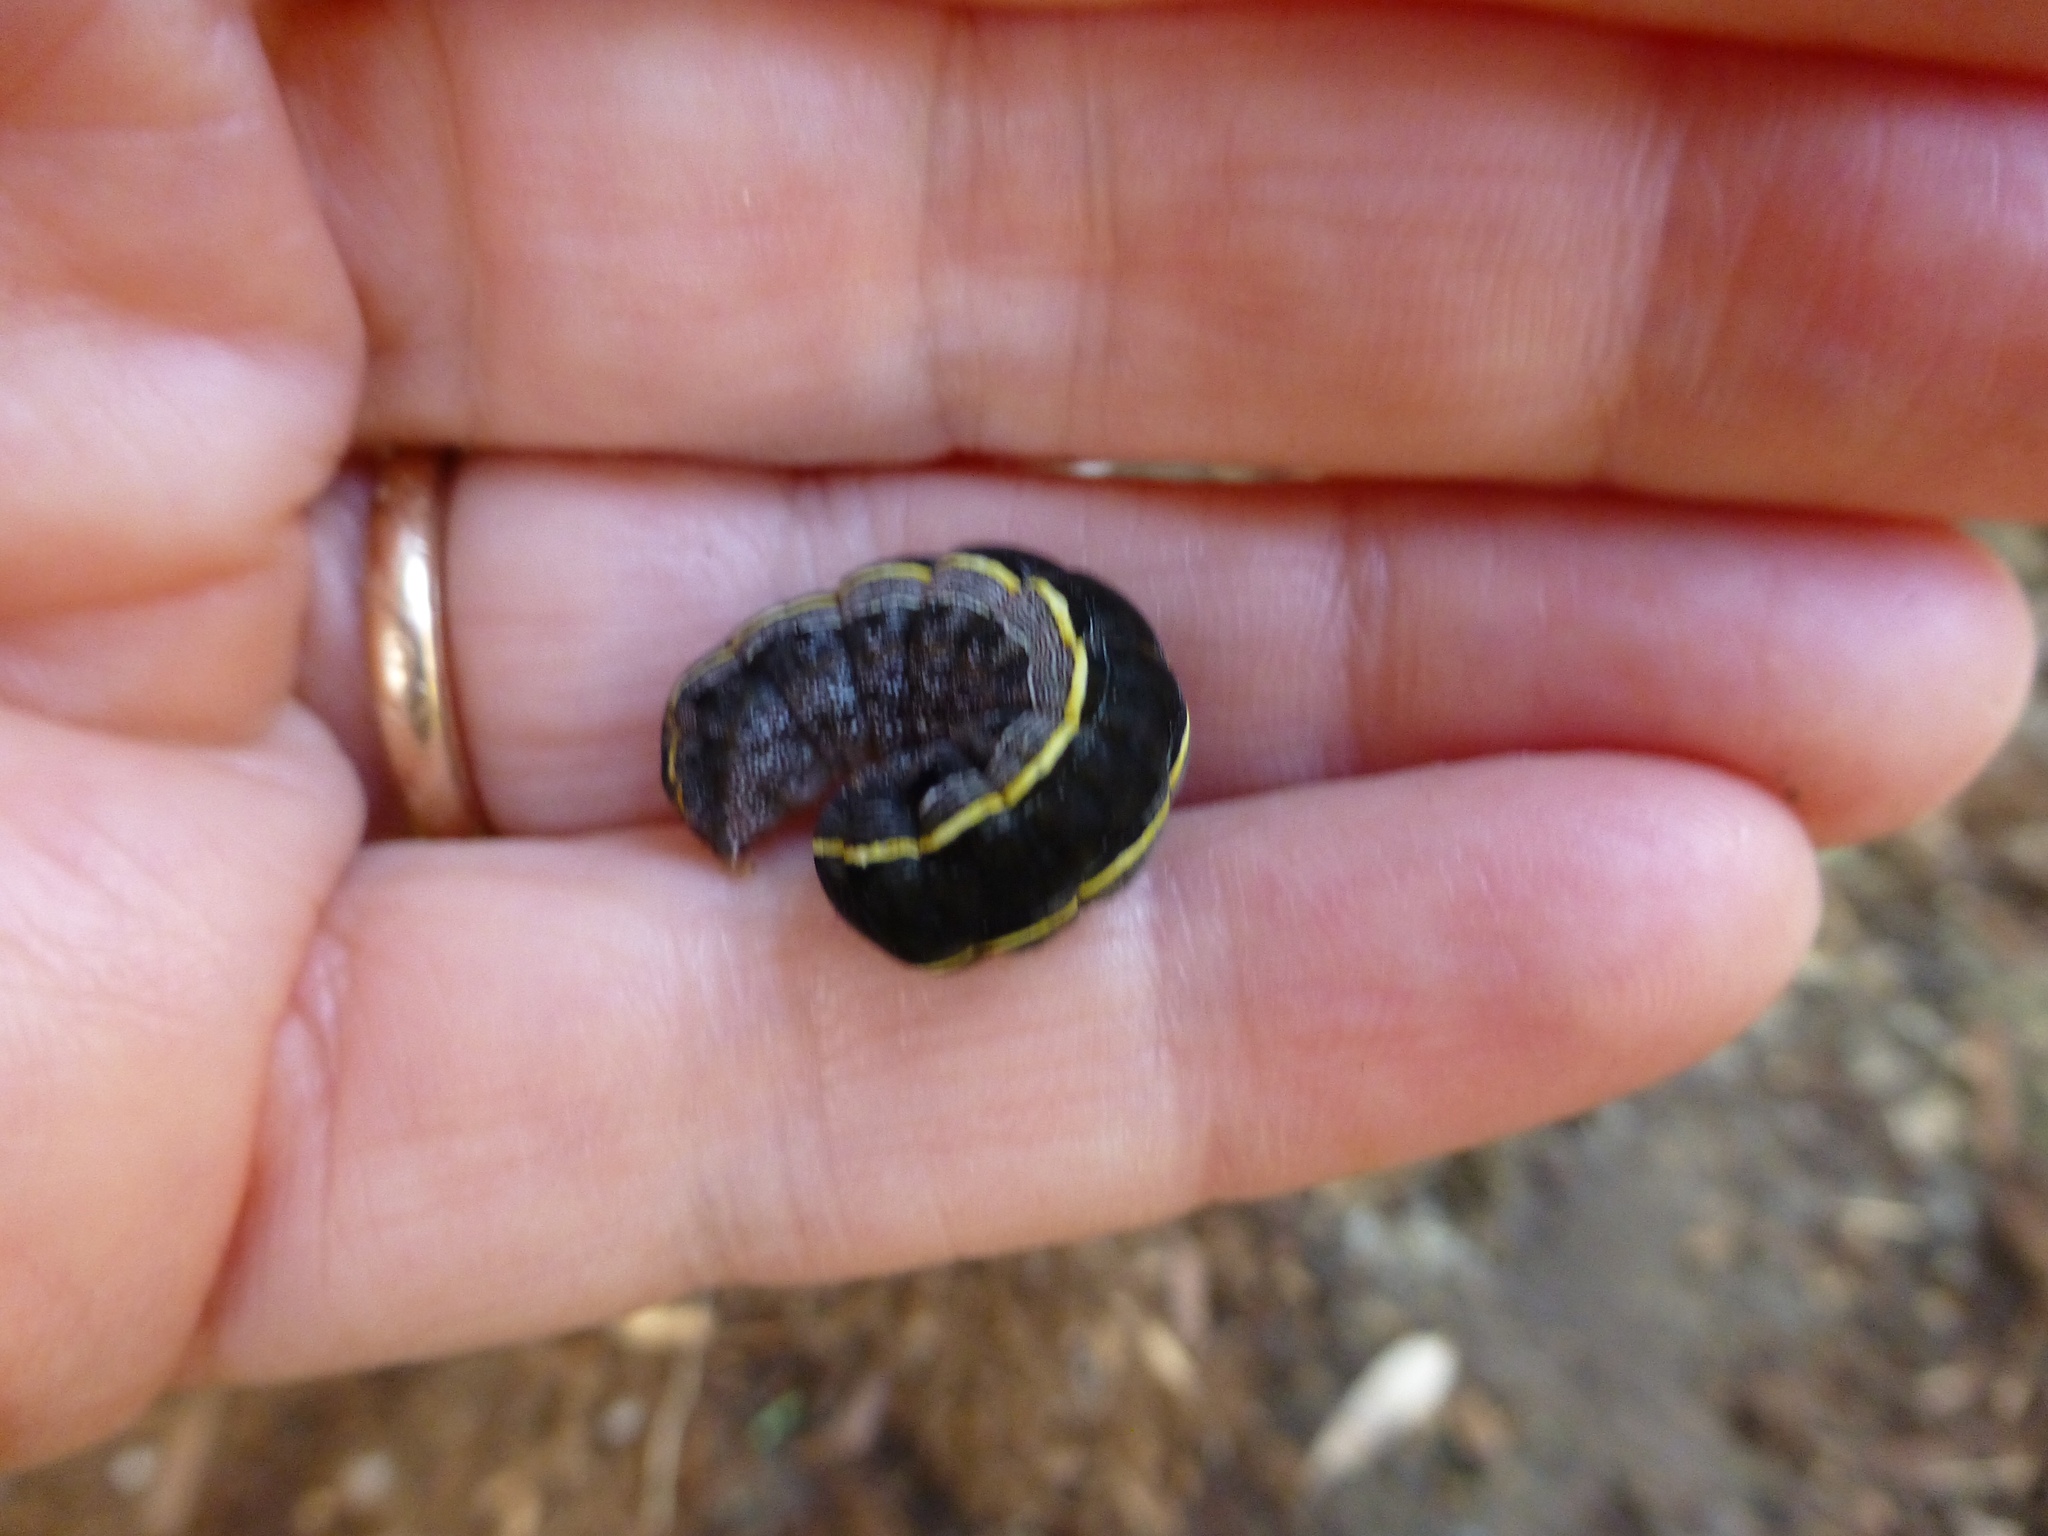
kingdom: Animalia
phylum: Arthropoda
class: Insecta
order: Lepidoptera
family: Noctuidae
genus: Spodoptera
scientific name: Spodoptera ornithogalli
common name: Yellow-striped armyworm
